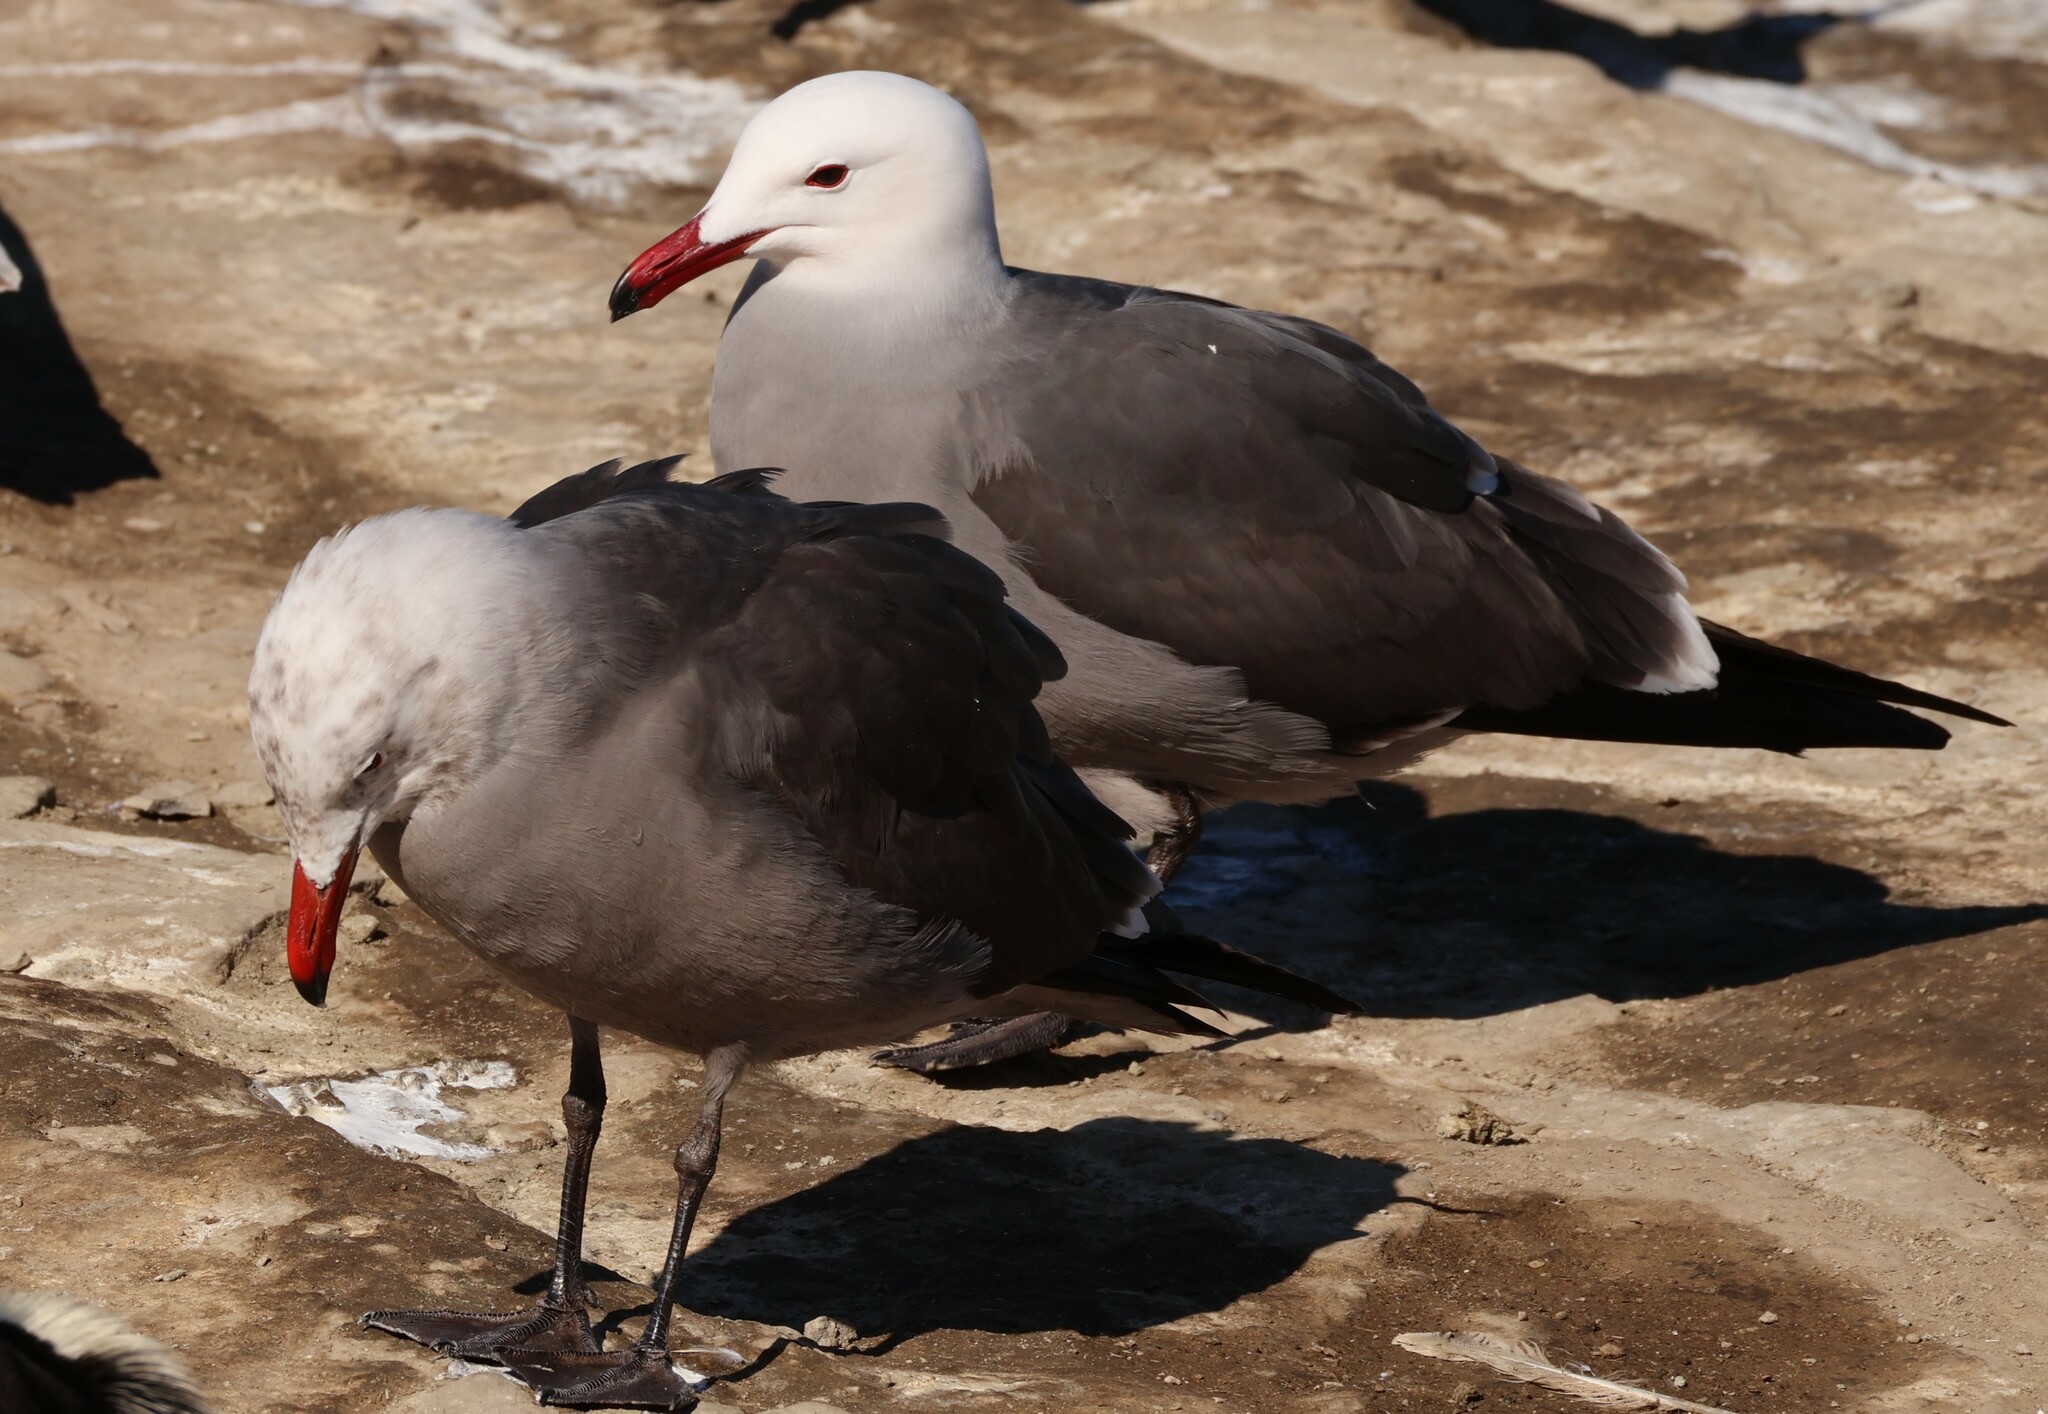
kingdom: Animalia
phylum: Chordata
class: Aves
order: Charadriiformes
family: Laridae
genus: Larus
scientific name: Larus heermanni
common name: Heermann's gull
